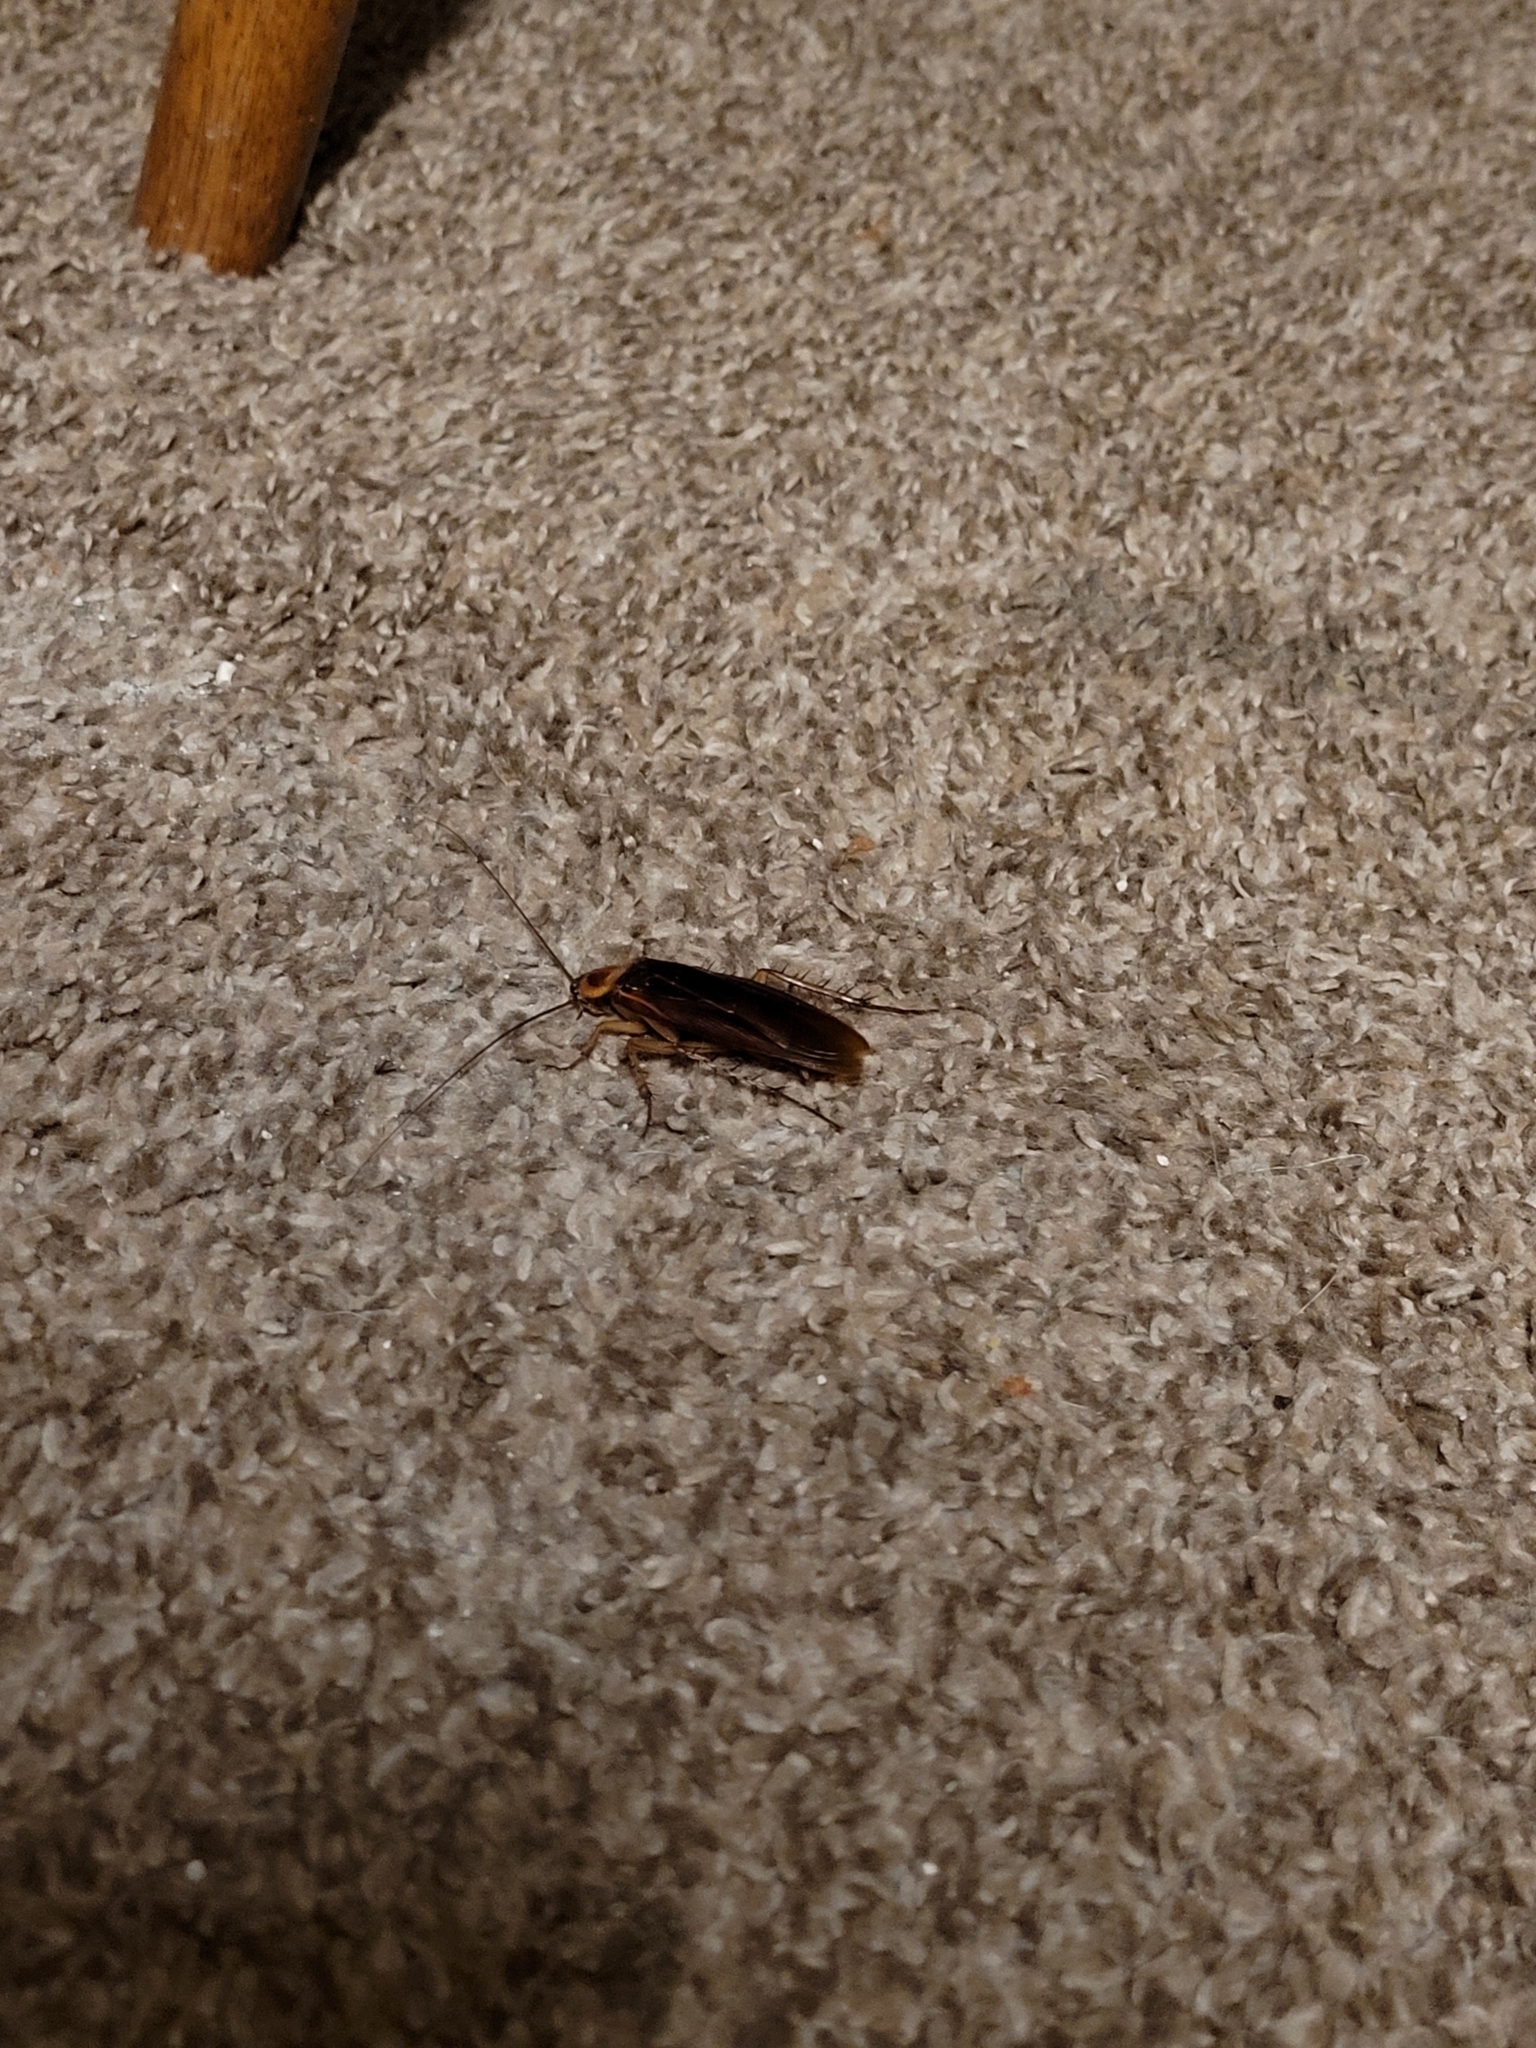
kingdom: Animalia
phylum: Arthropoda
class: Insecta
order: Blattodea
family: Blattidae
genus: Periplaneta
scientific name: Periplaneta americana
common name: American cockroach
